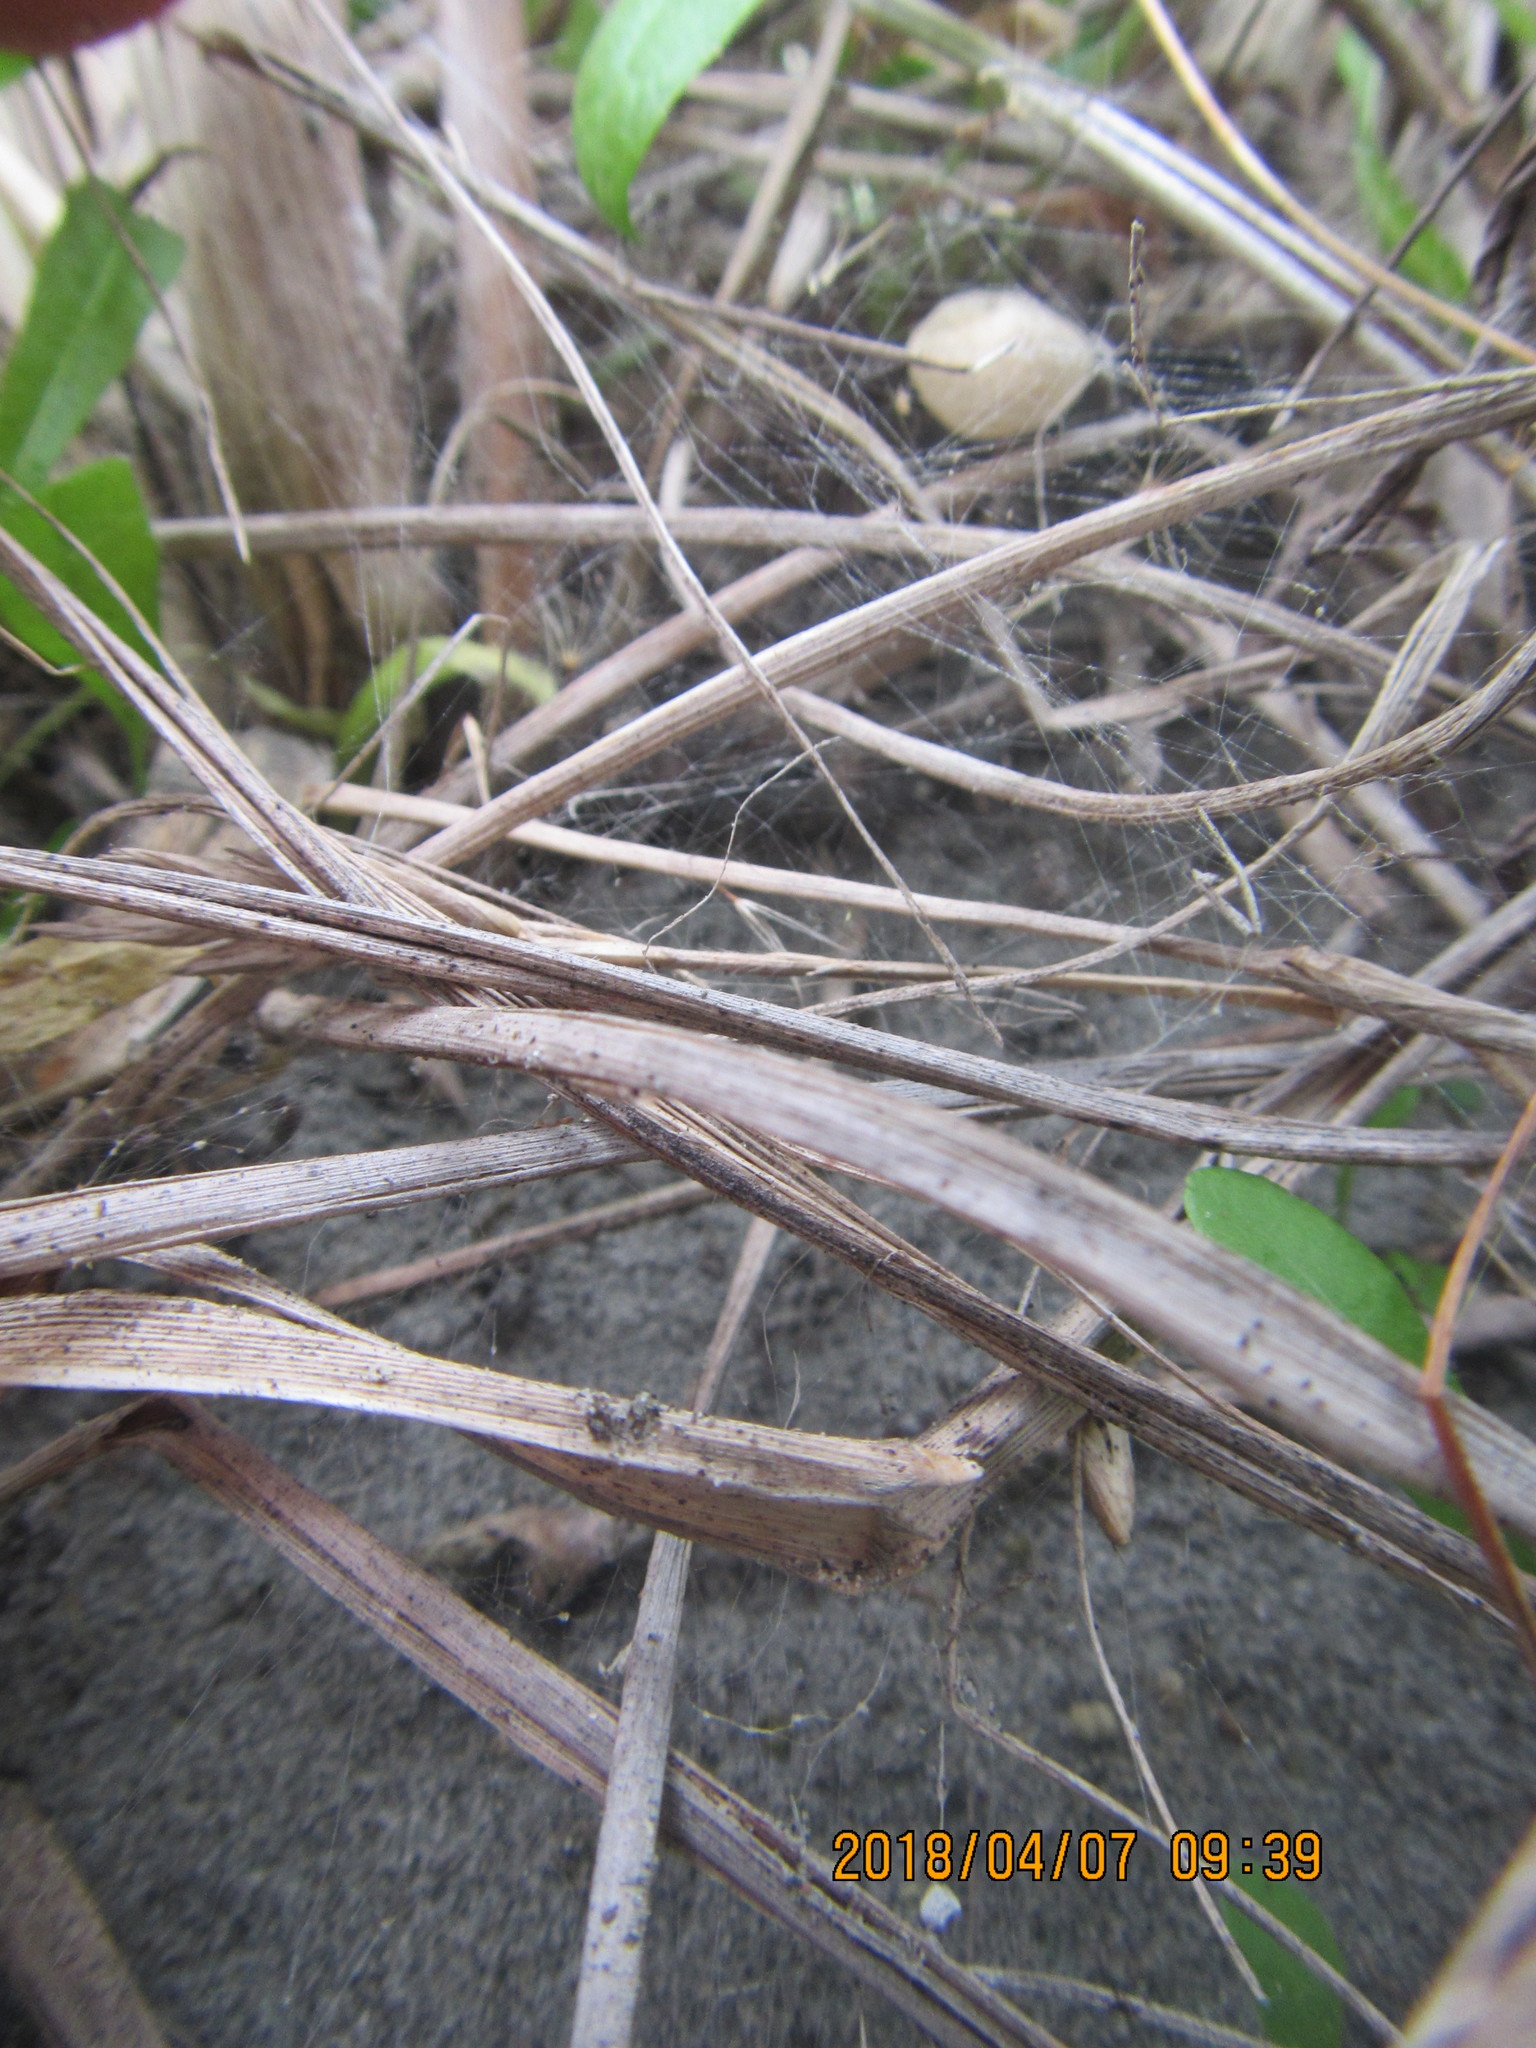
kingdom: Animalia
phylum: Arthropoda
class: Arachnida
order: Araneae
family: Theridiidae
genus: Latrodectus
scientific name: Latrodectus katipo
